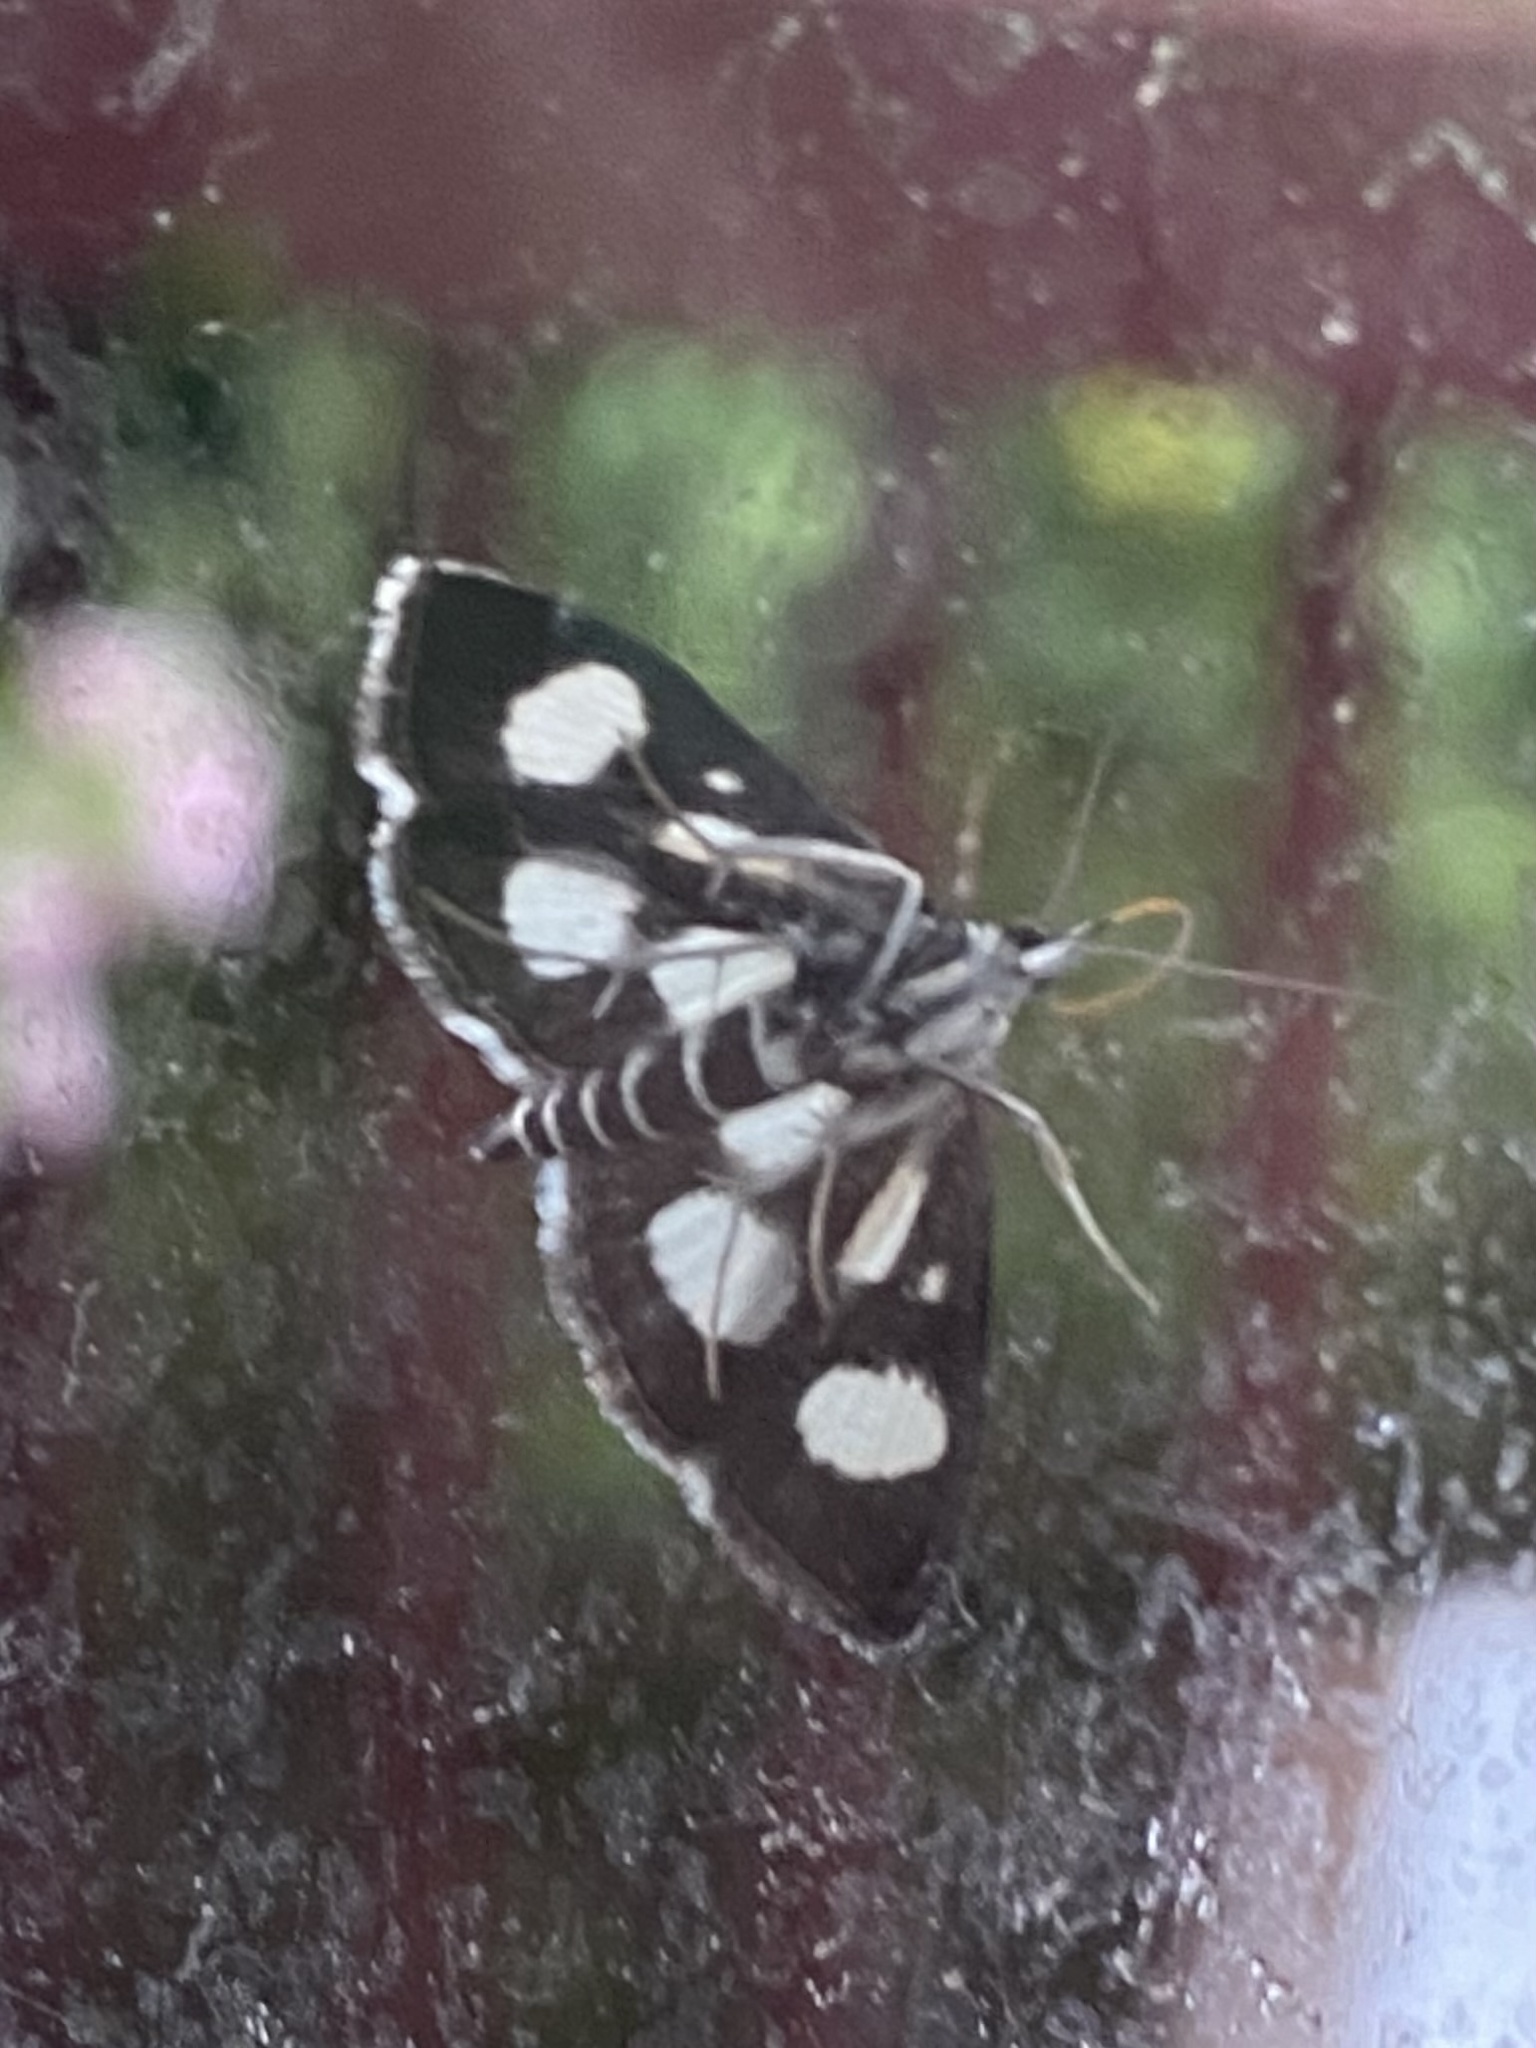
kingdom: Animalia
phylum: Arthropoda
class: Insecta
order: Lepidoptera
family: Crambidae
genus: Anania
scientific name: Anania funebris
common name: White-spotted sable moth
